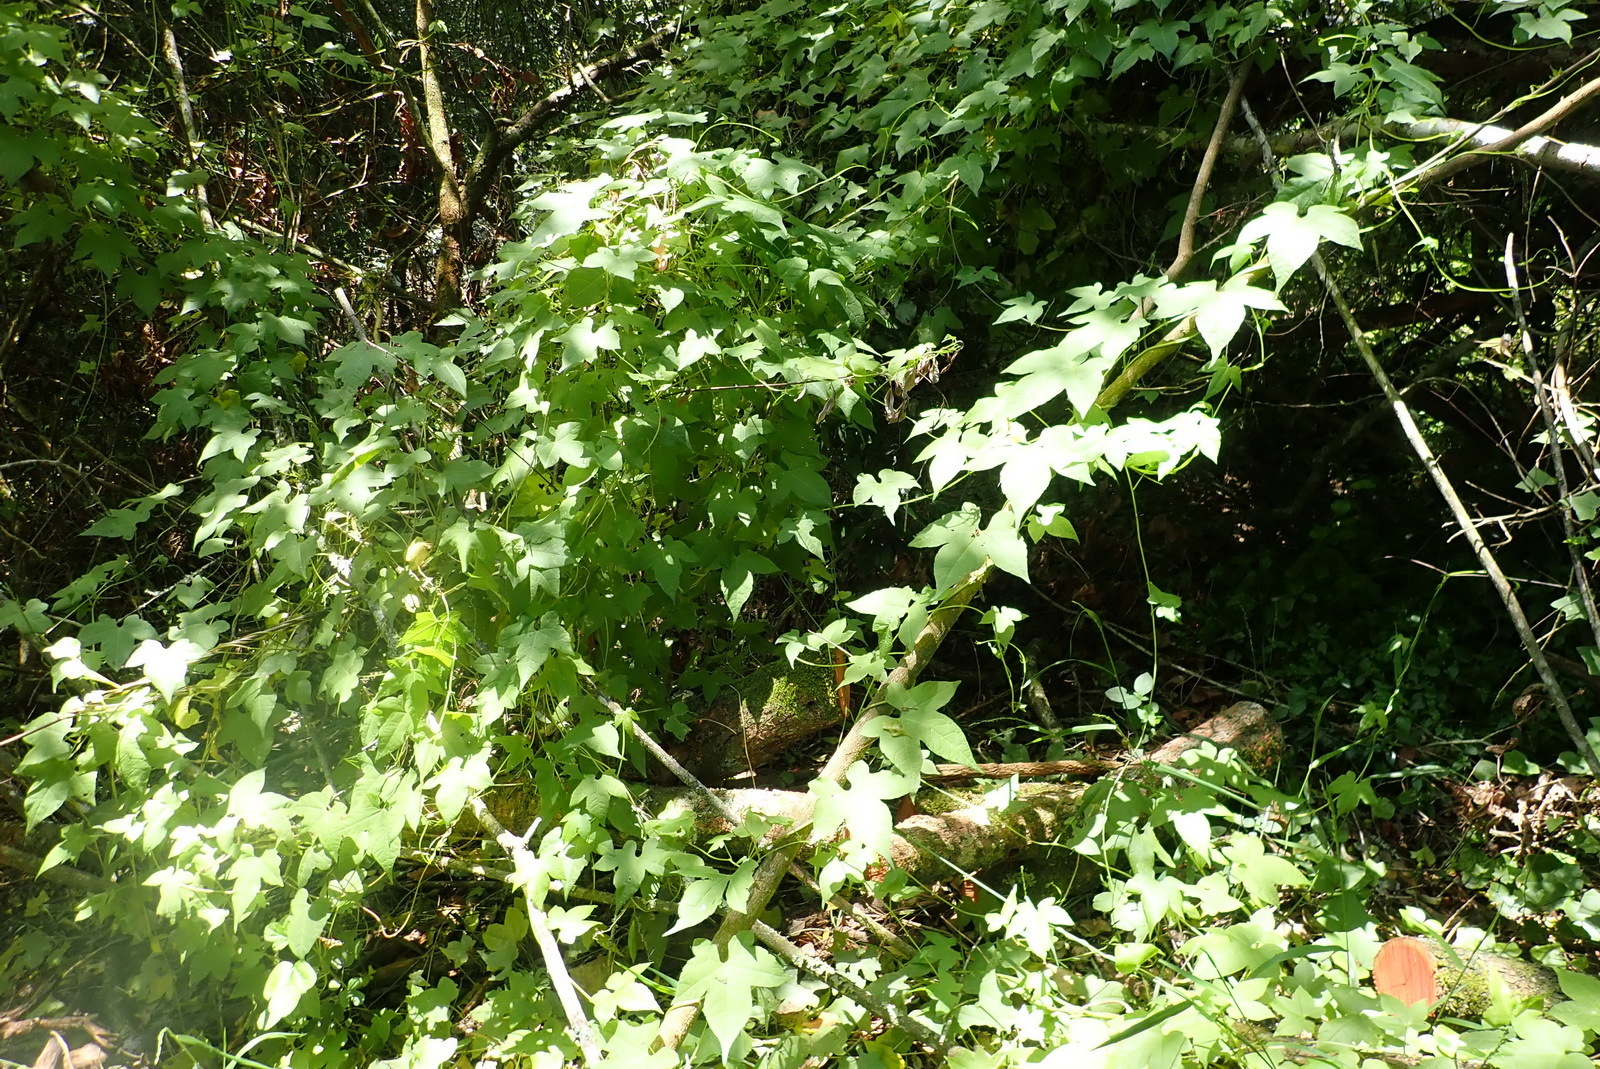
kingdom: Plantae
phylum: Tracheophyta
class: Magnoliopsida
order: Malpighiales
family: Achariaceae
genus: Ceratiosicyos
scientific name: Ceratiosicyos laevis
